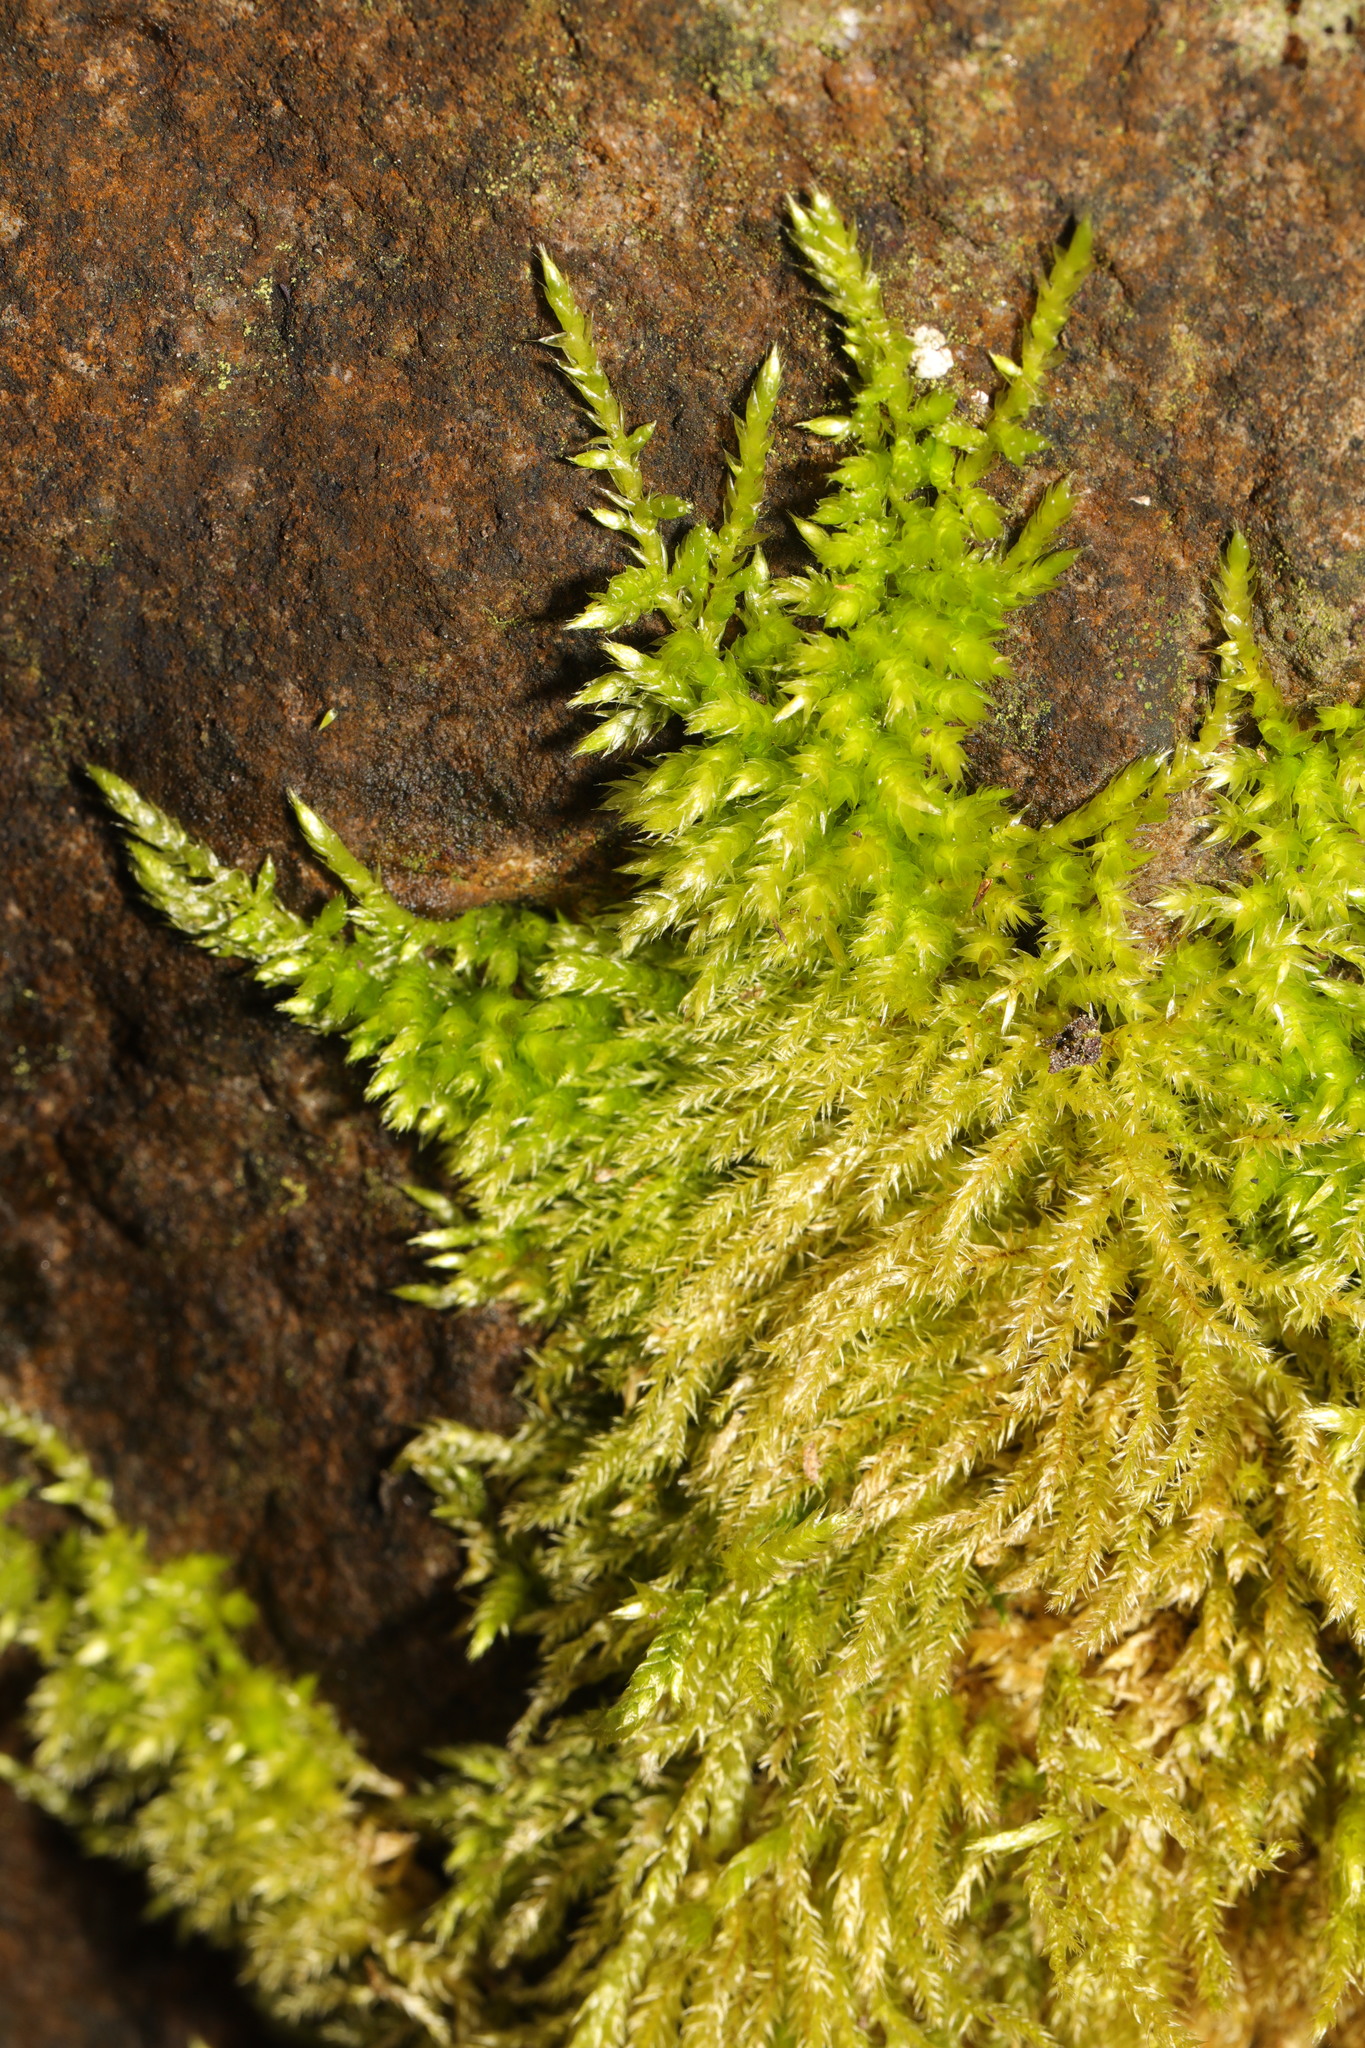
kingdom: Plantae
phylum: Bryophyta
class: Bryopsida
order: Hypnales
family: Brachytheciaceae
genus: Homalothecium
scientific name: Homalothecium sericeum
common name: Silky wall feather-moss
